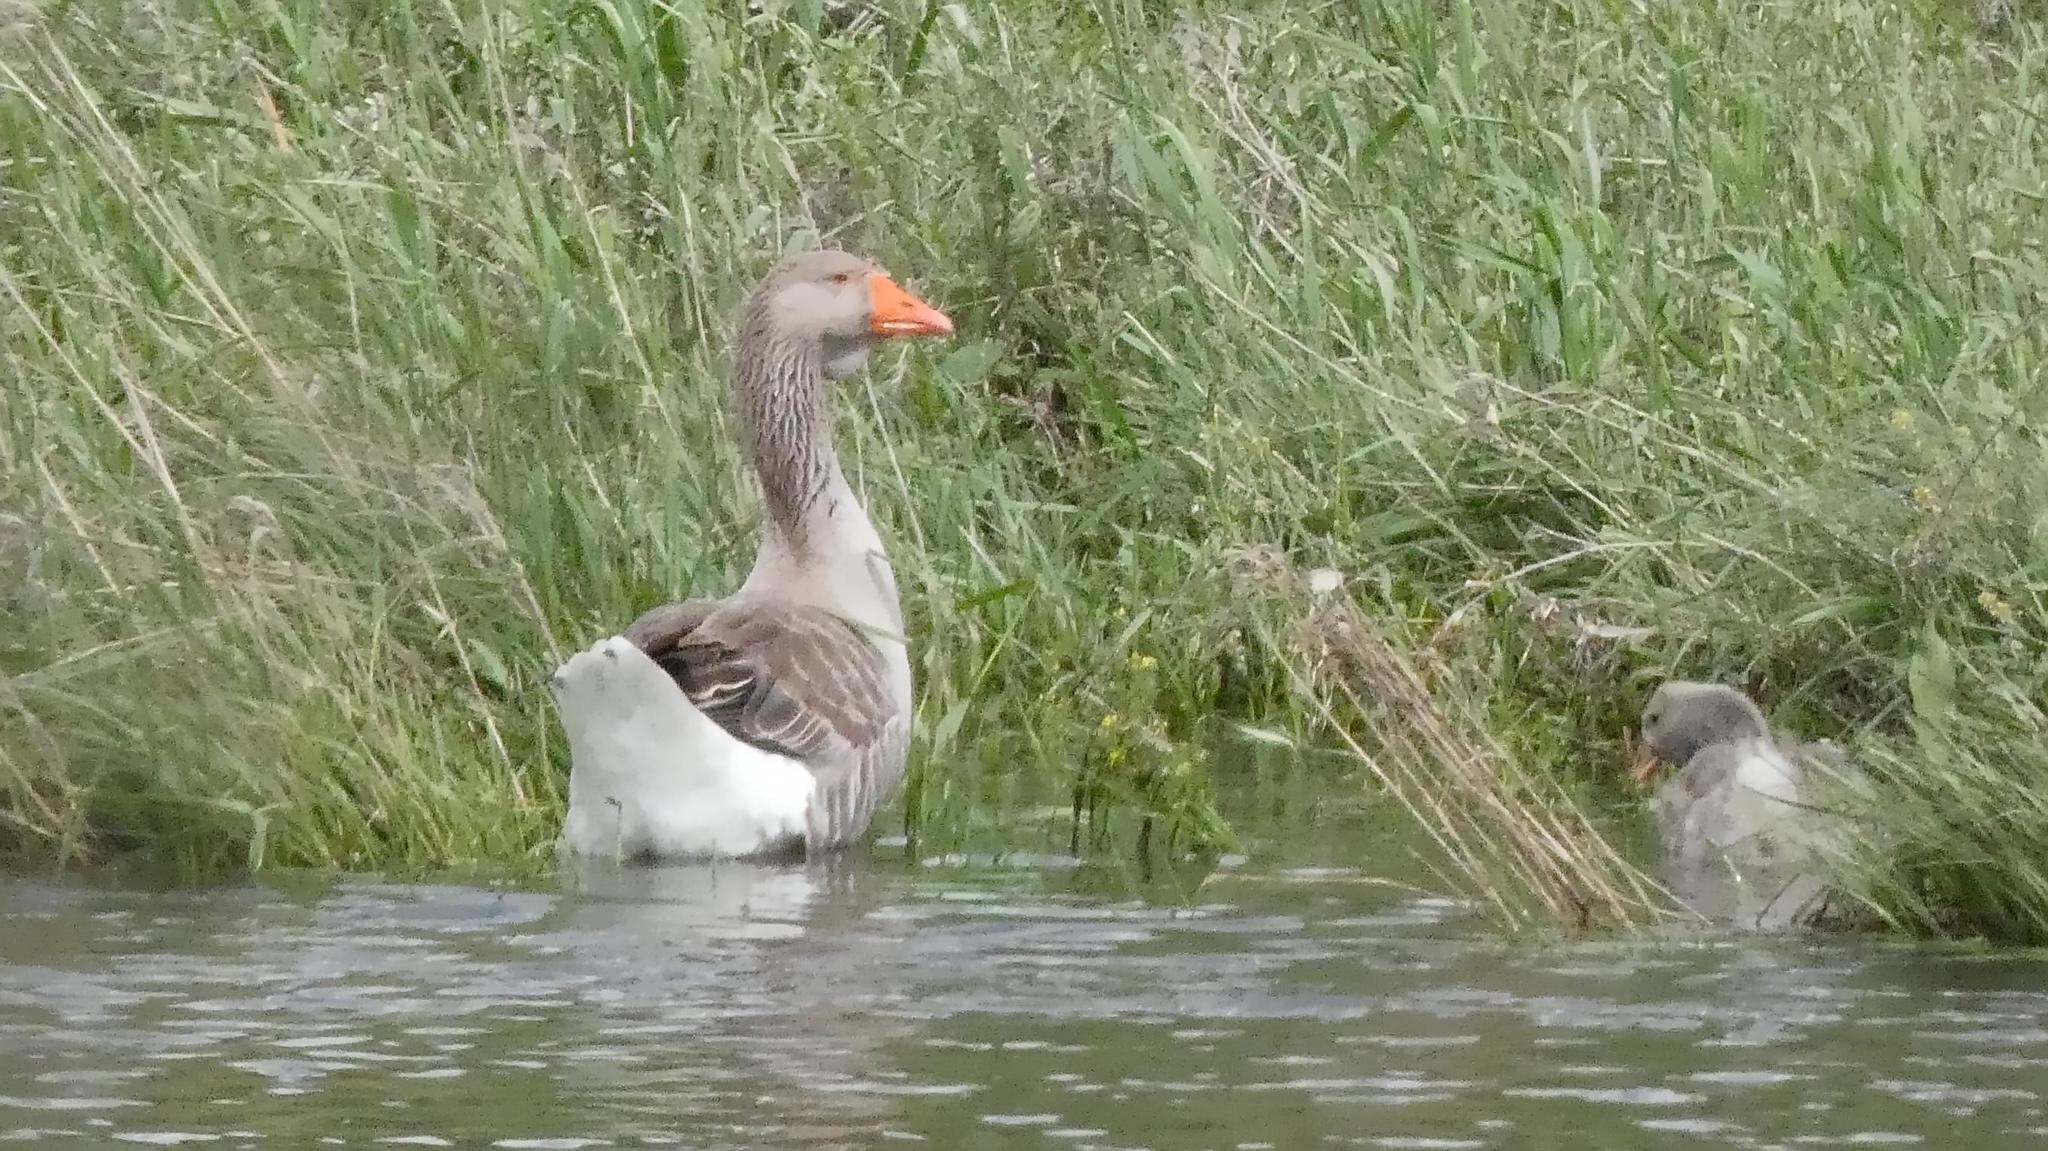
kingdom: Animalia
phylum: Chordata
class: Aves
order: Anseriformes
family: Anatidae
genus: Anser
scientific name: Anser anser
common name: Greylag goose
